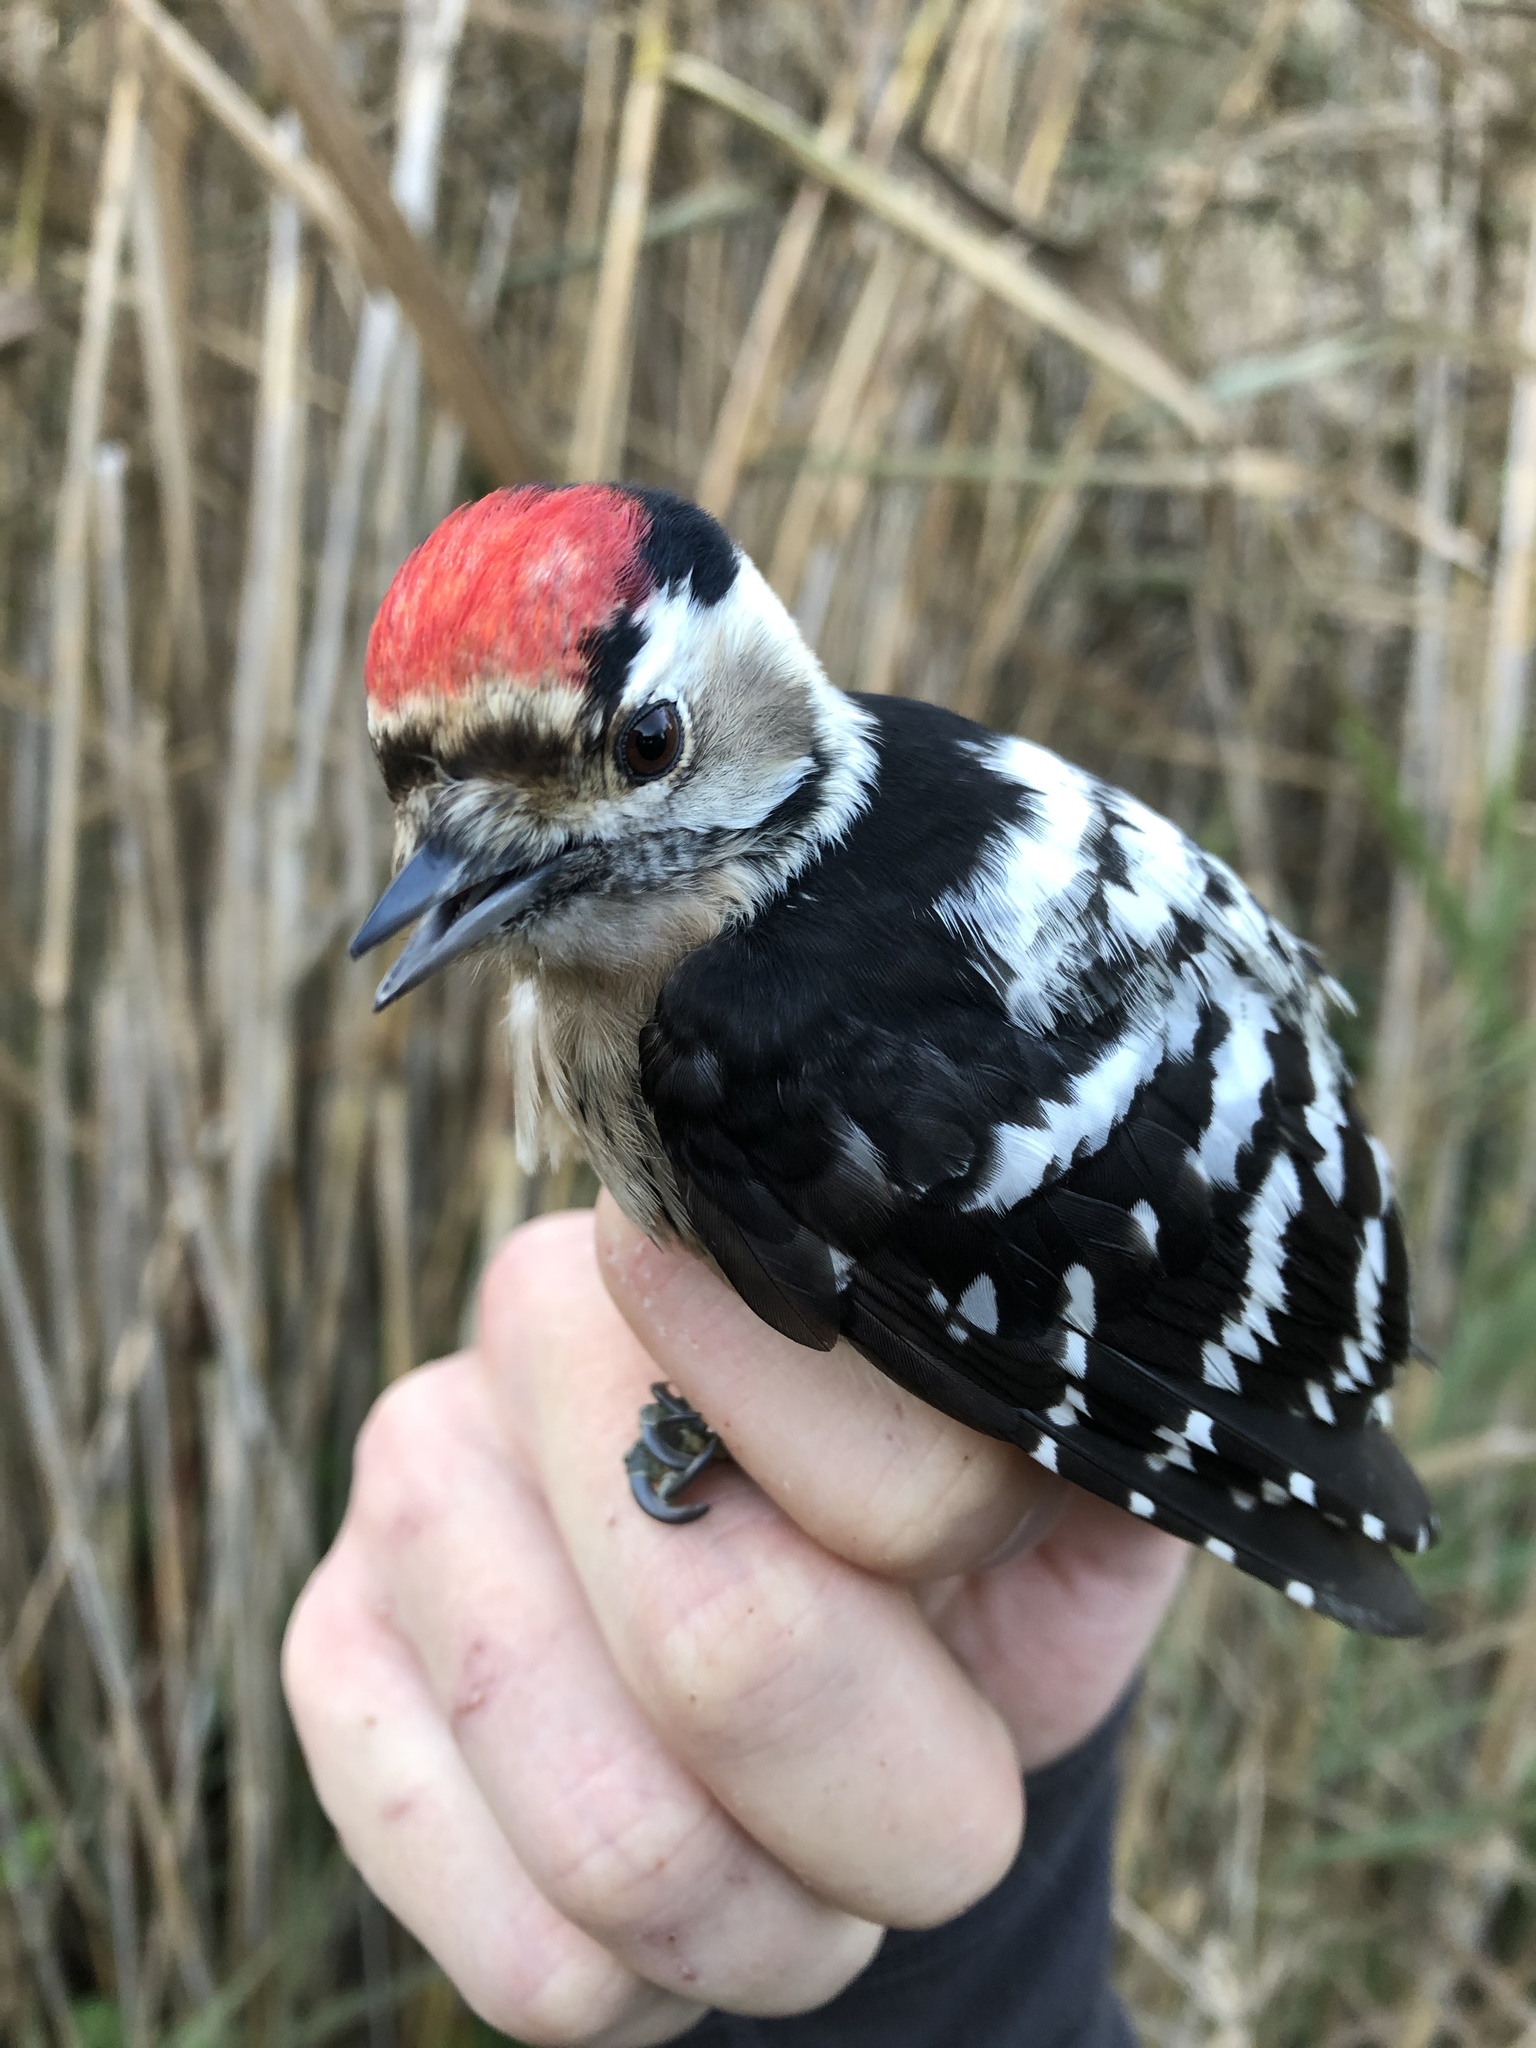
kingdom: Animalia
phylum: Chordata
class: Aves
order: Piciformes
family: Picidae
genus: Dryobates
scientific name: Dryobates minor
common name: Lesser spotted woodpecker
